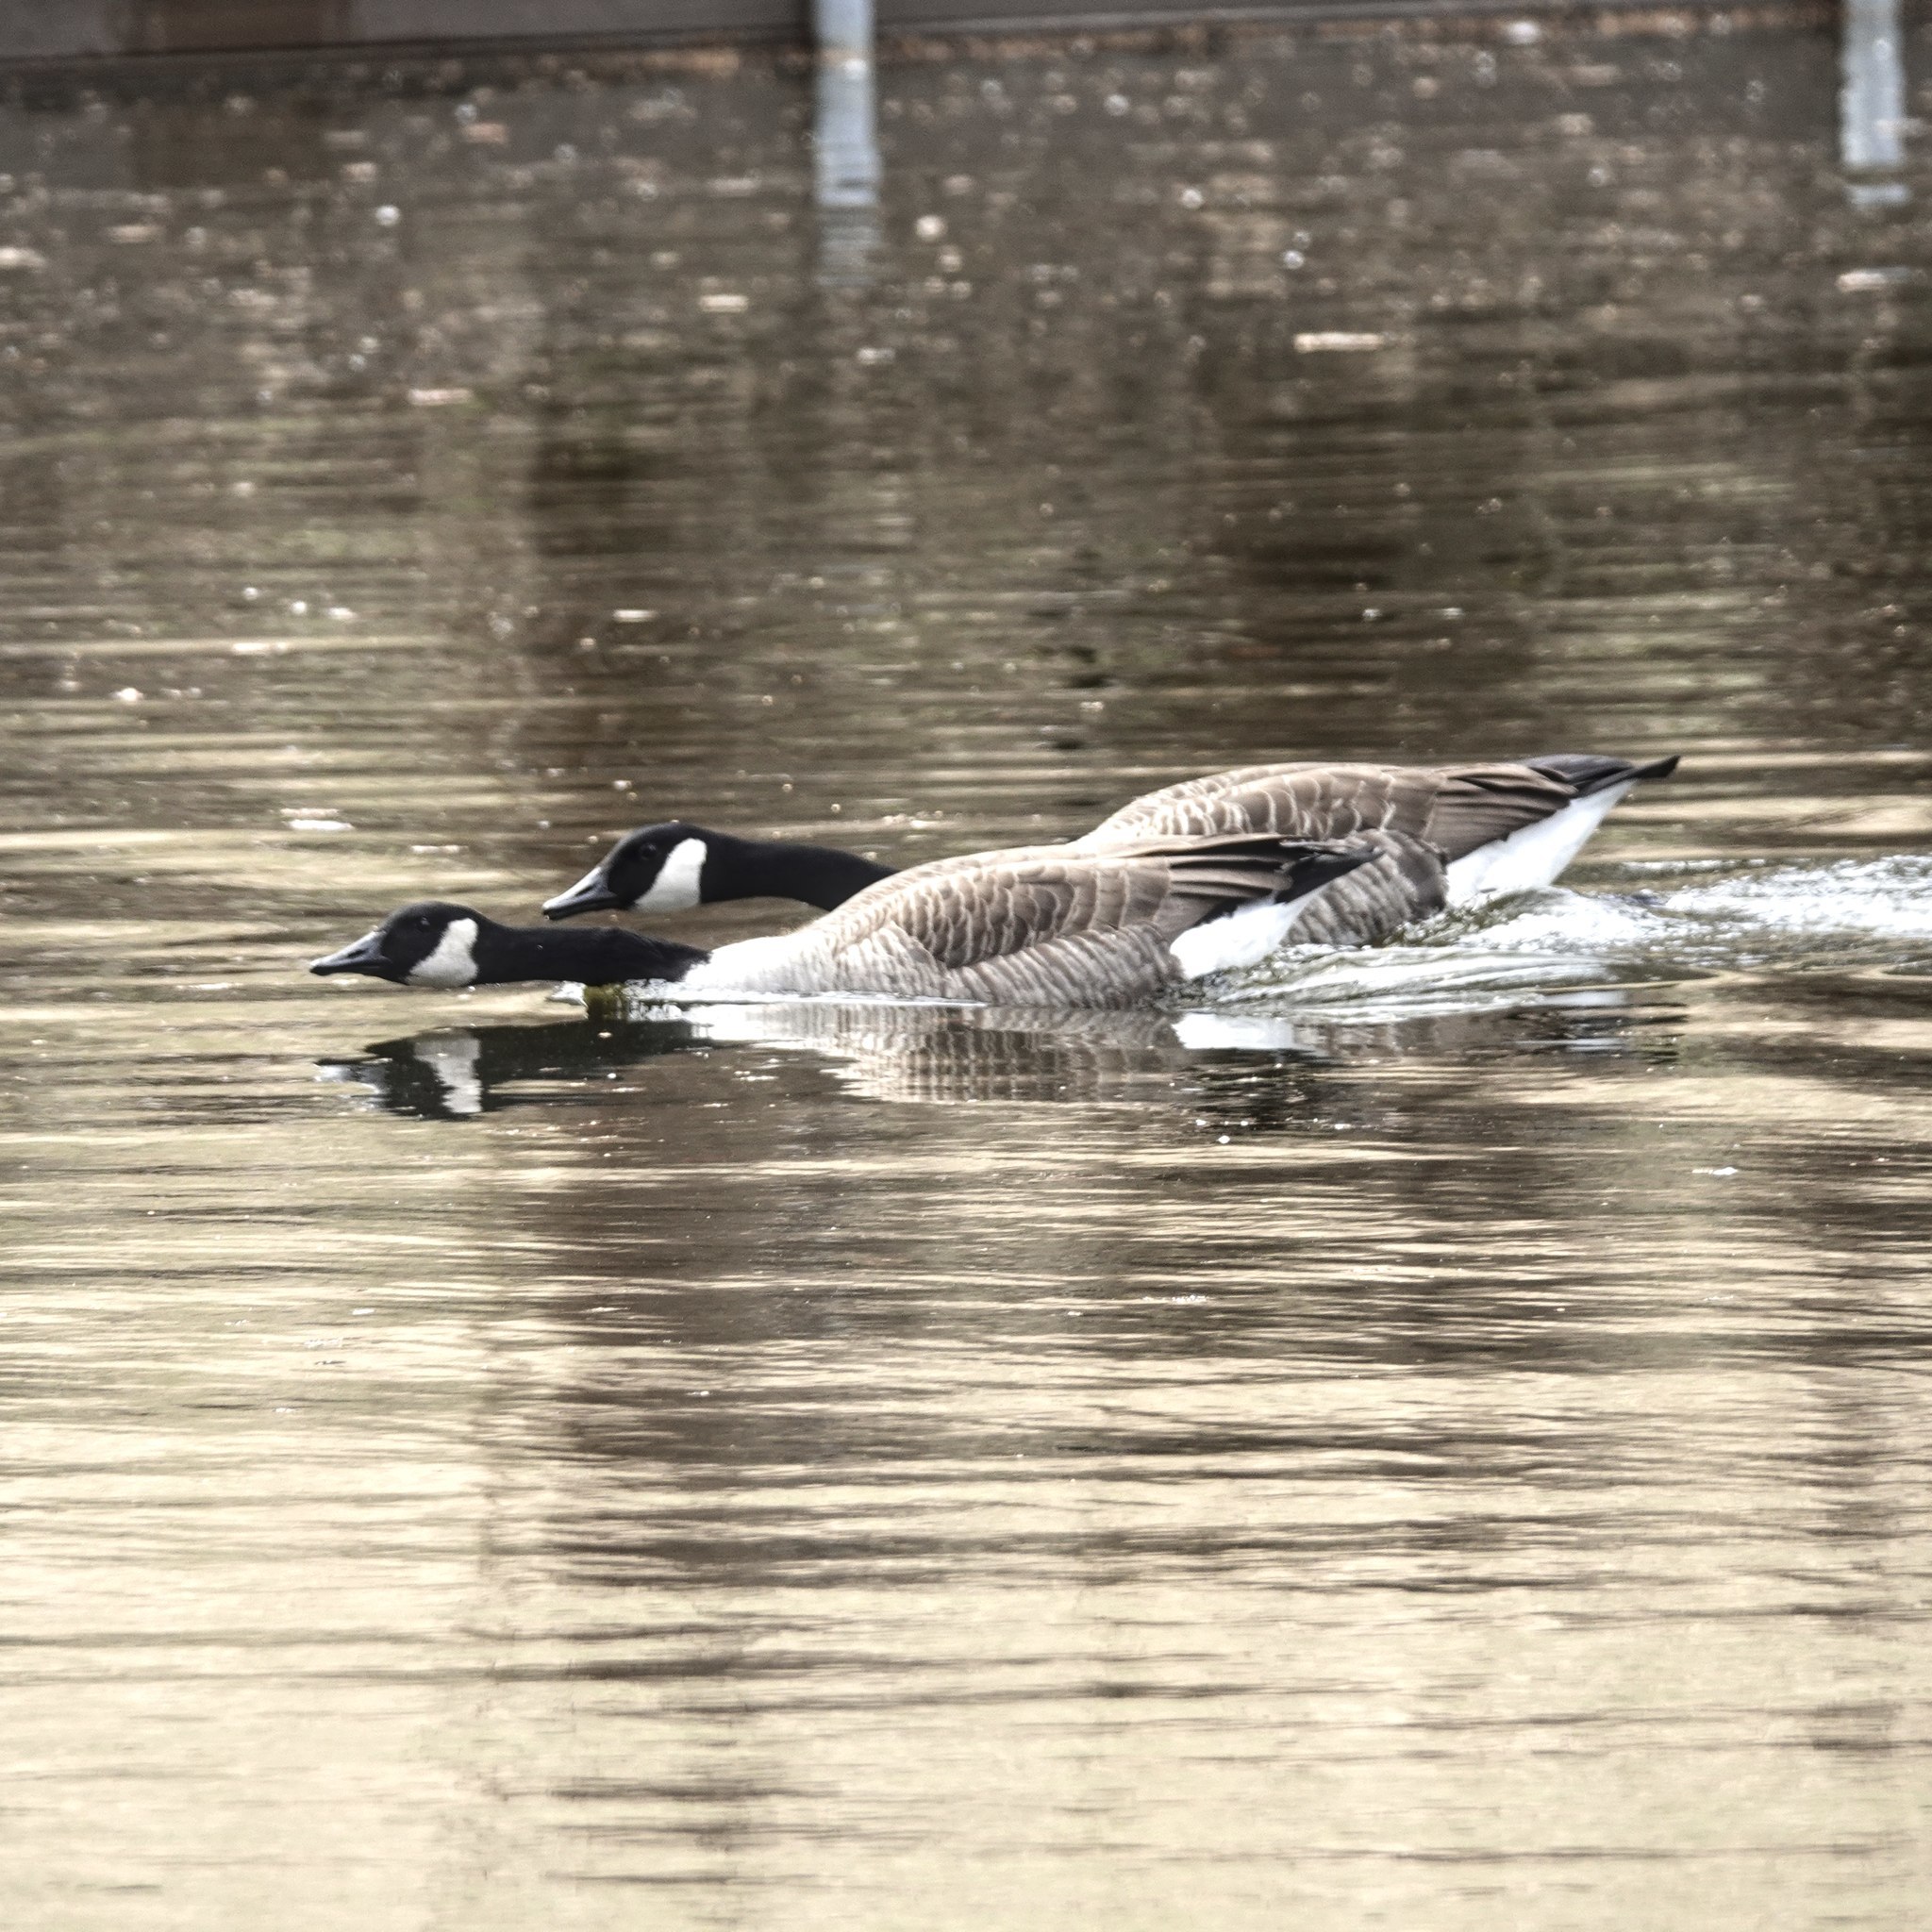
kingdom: Animalia
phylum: Chordata
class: Aves
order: Anseriformes
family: Anatidae
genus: Branta
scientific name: Branta canadensis
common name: Canada goose
